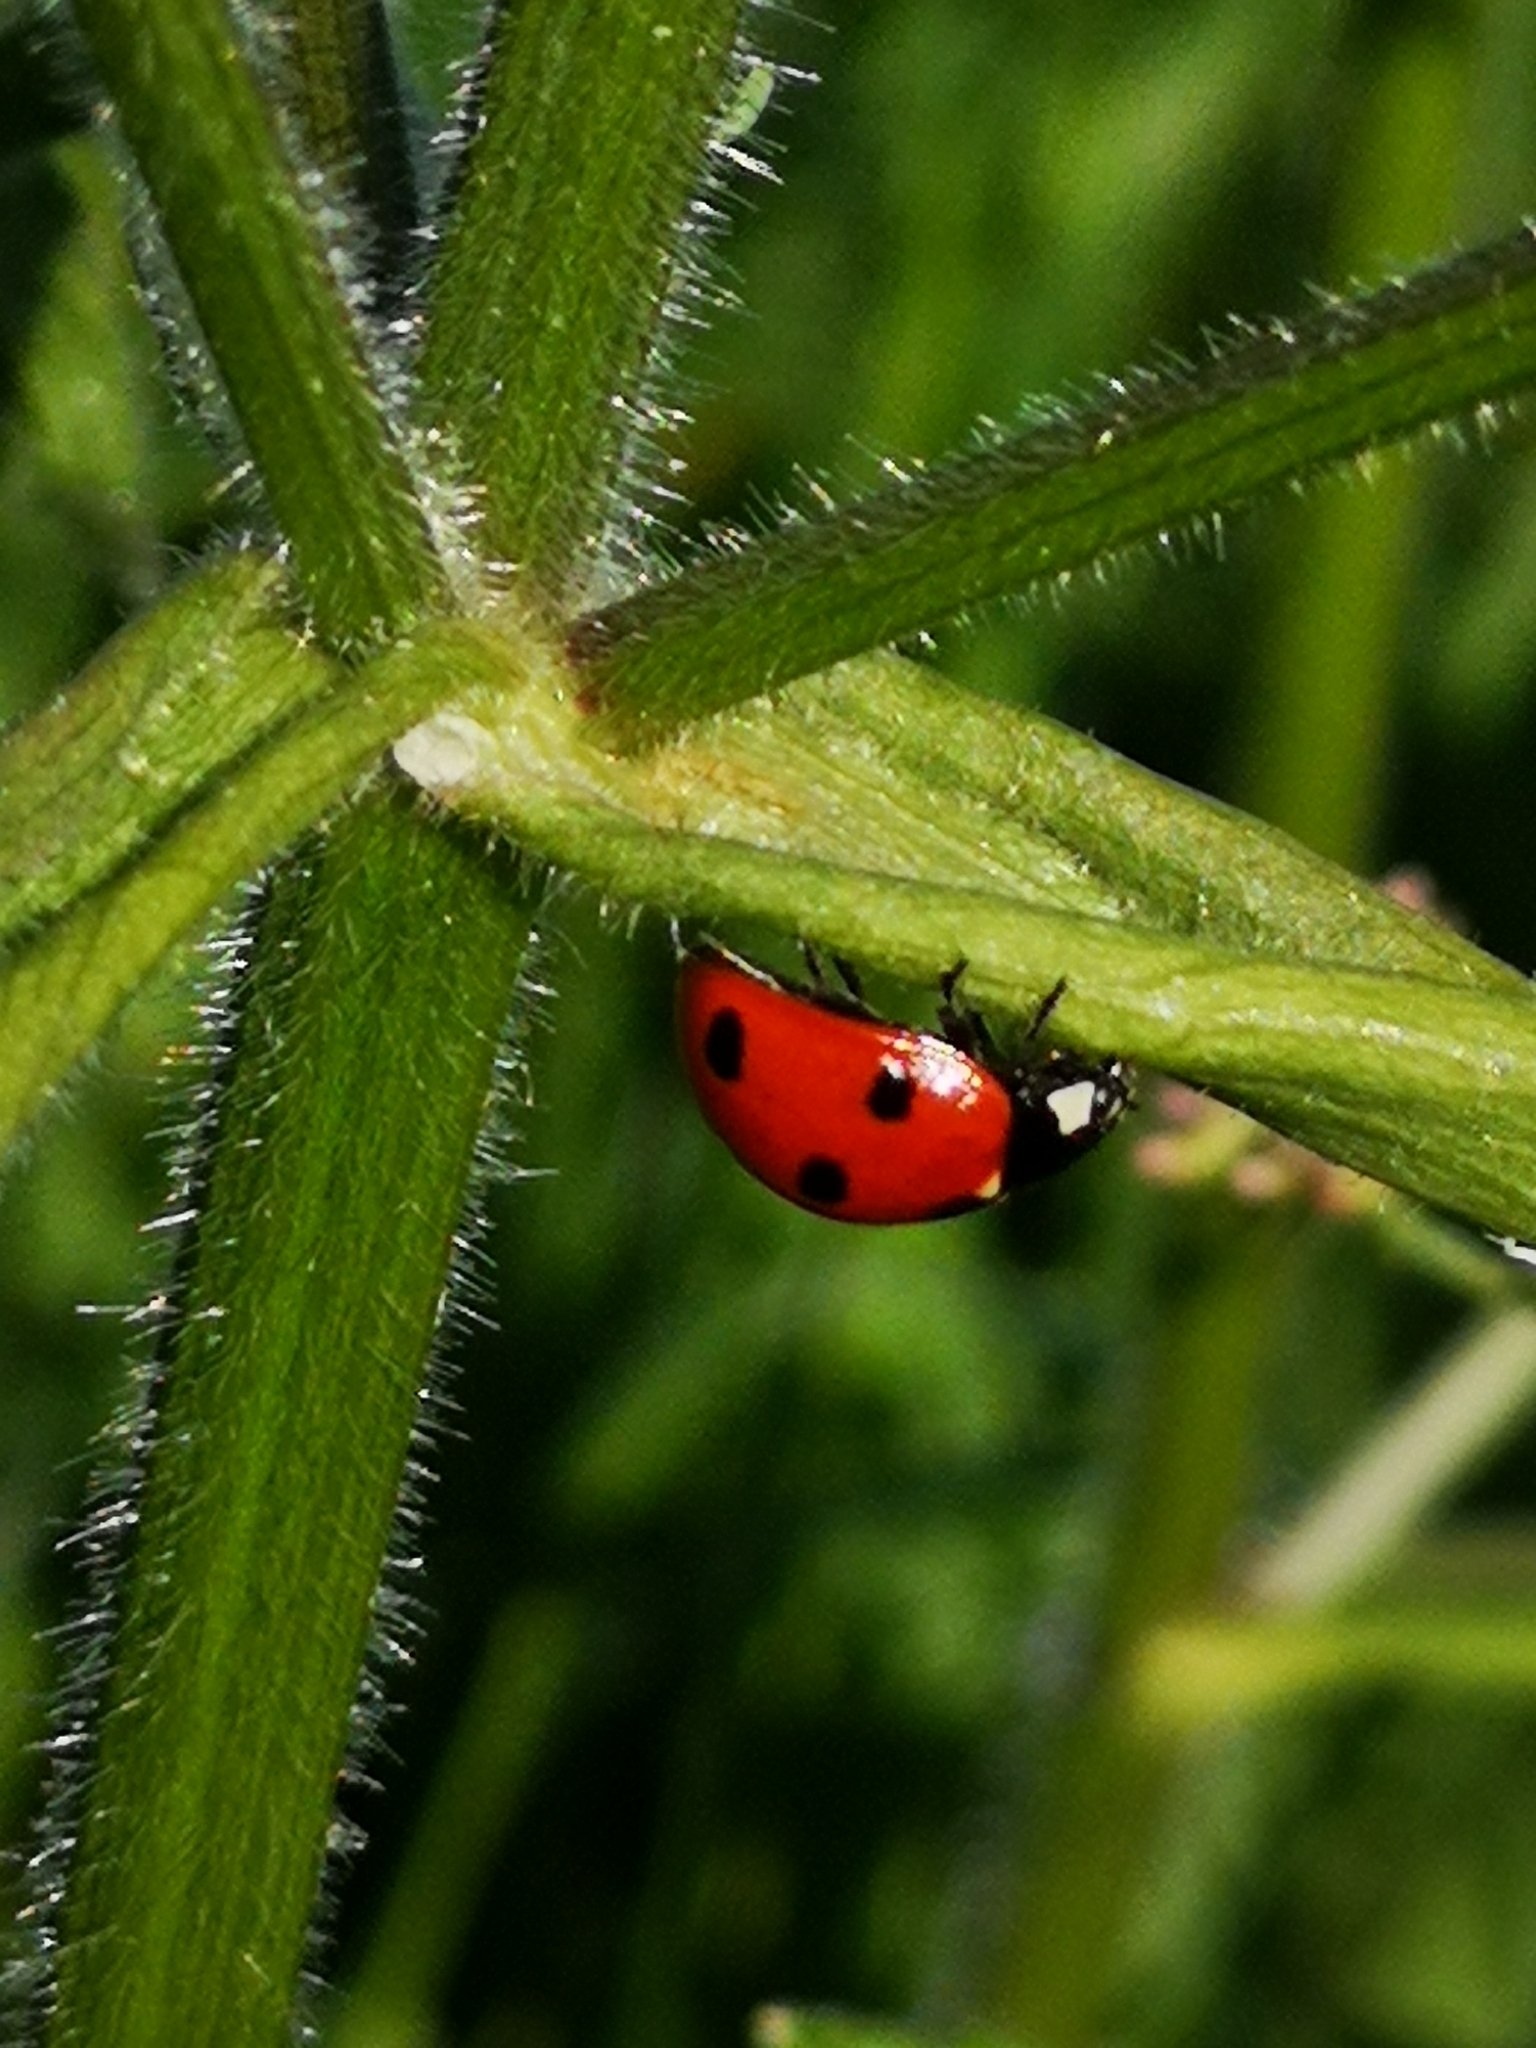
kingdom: Animalia
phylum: Arthropoda
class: Insecta
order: Coleoptera
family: Coccinellidae
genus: Coccinella
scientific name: Coccinella septempunctata
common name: Sevenspotted lady beetle
